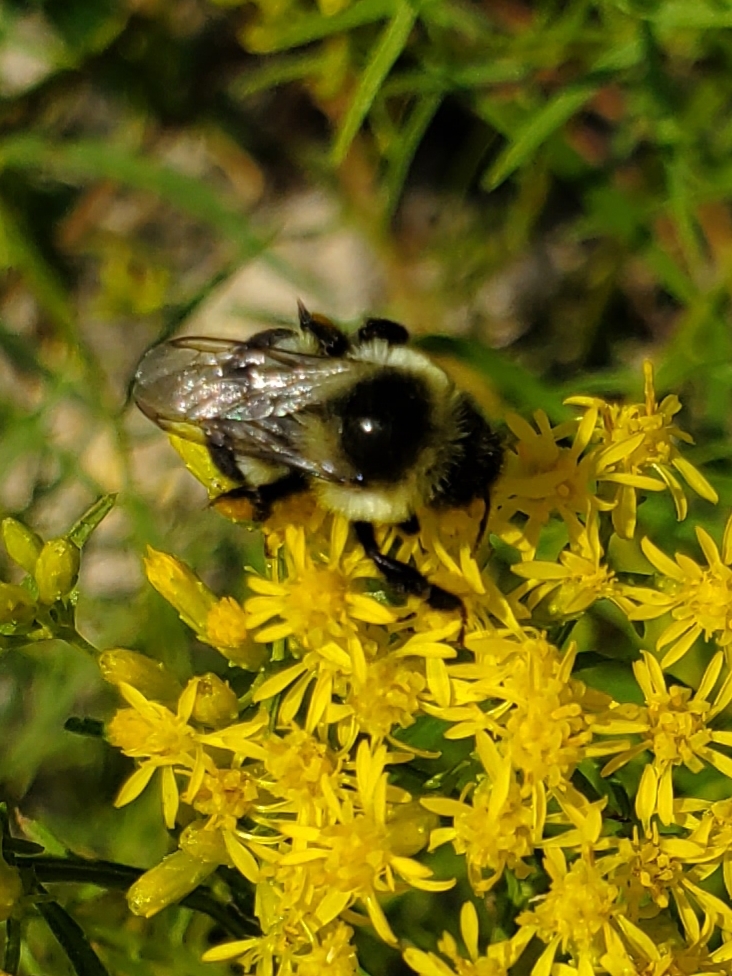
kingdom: Animalia
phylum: Arthropoda
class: Insecta
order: Hymenoptera
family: Apidae
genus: Bombus
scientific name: Bombus impatiens
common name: Common eastern bumble bee
